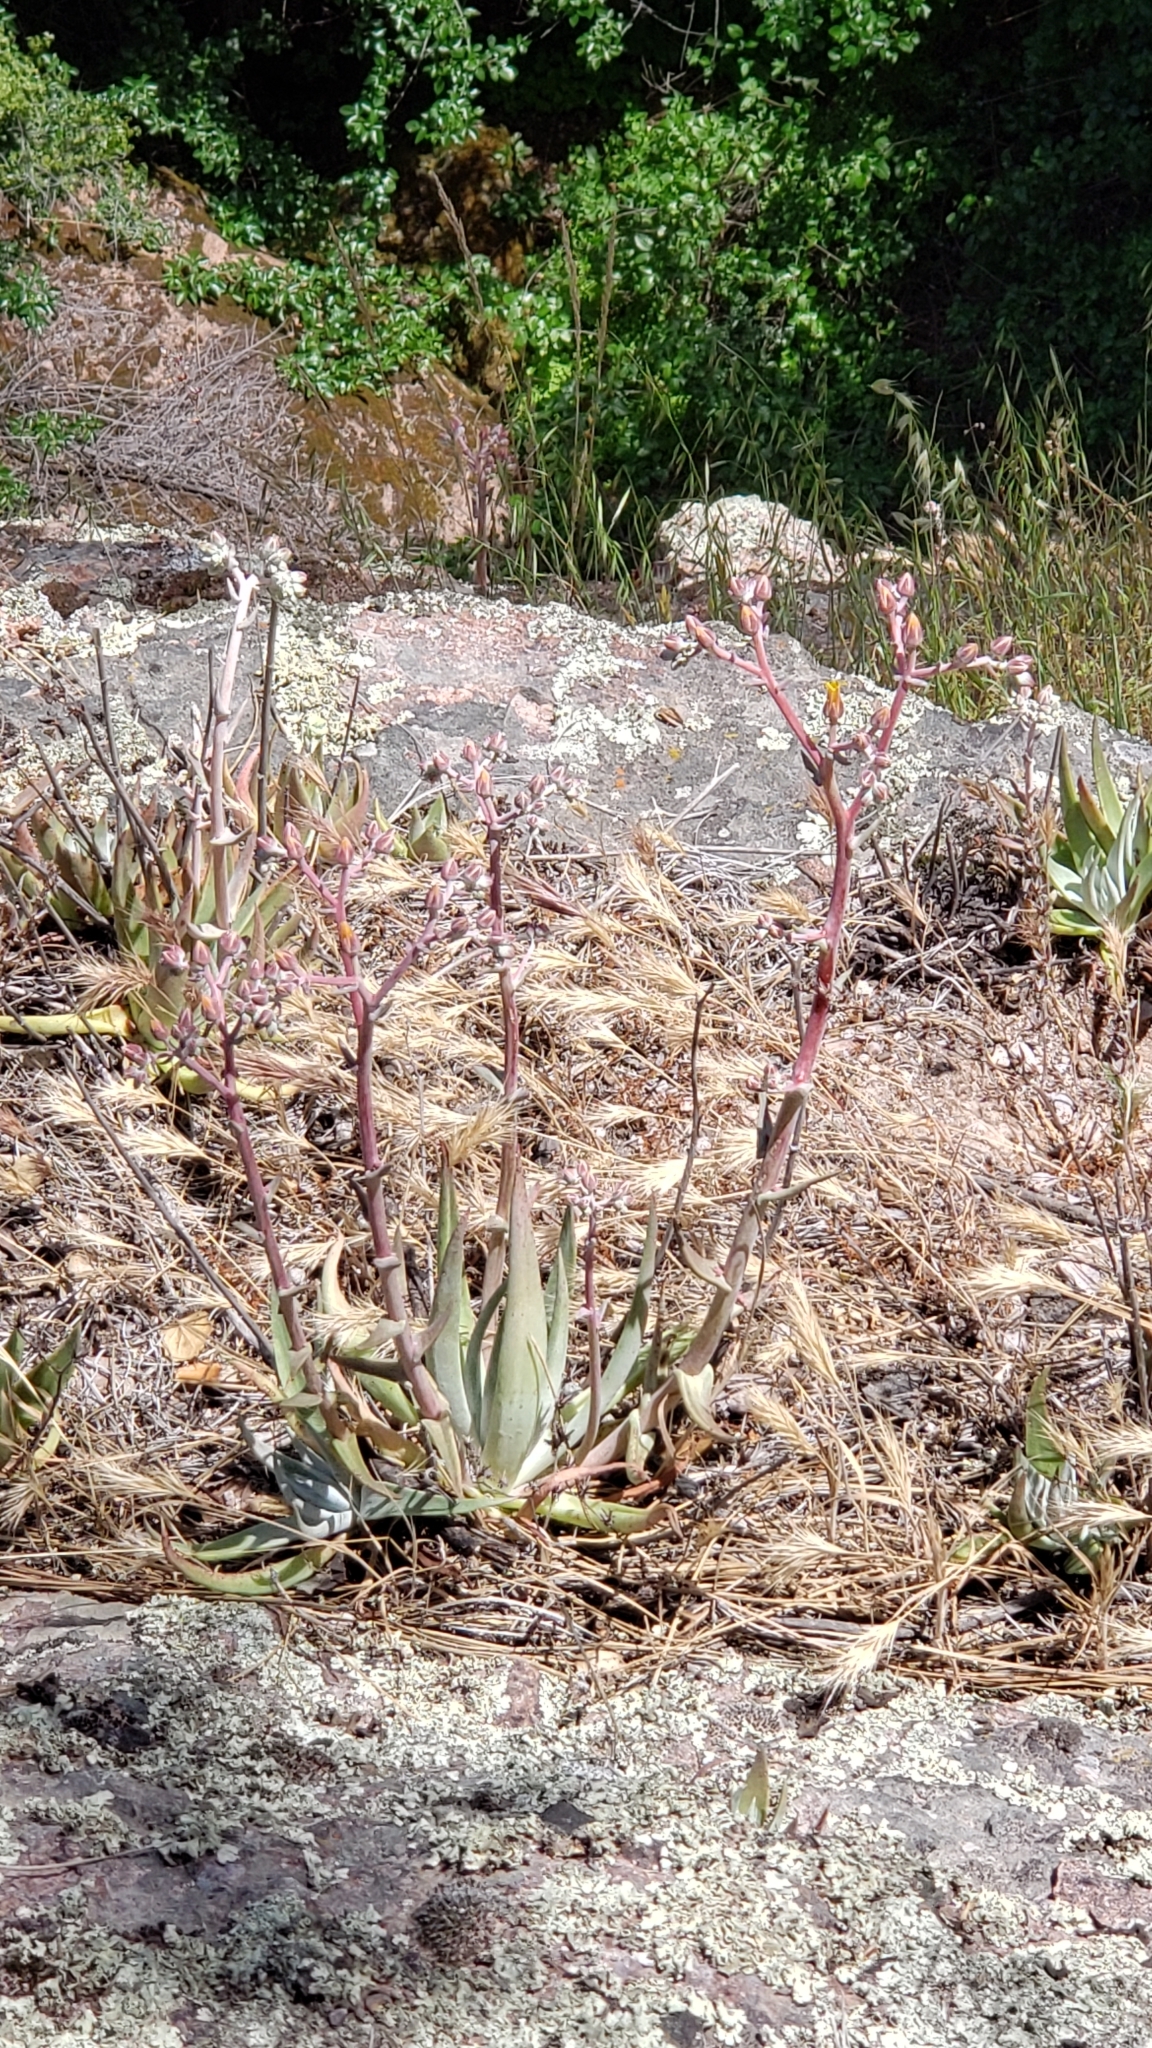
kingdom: Plantae
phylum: Tracheophyta
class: Magnoliopsida
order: Saxifragales
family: Crassulaceae
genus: Dudleya
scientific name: Dudleya lanceolata
